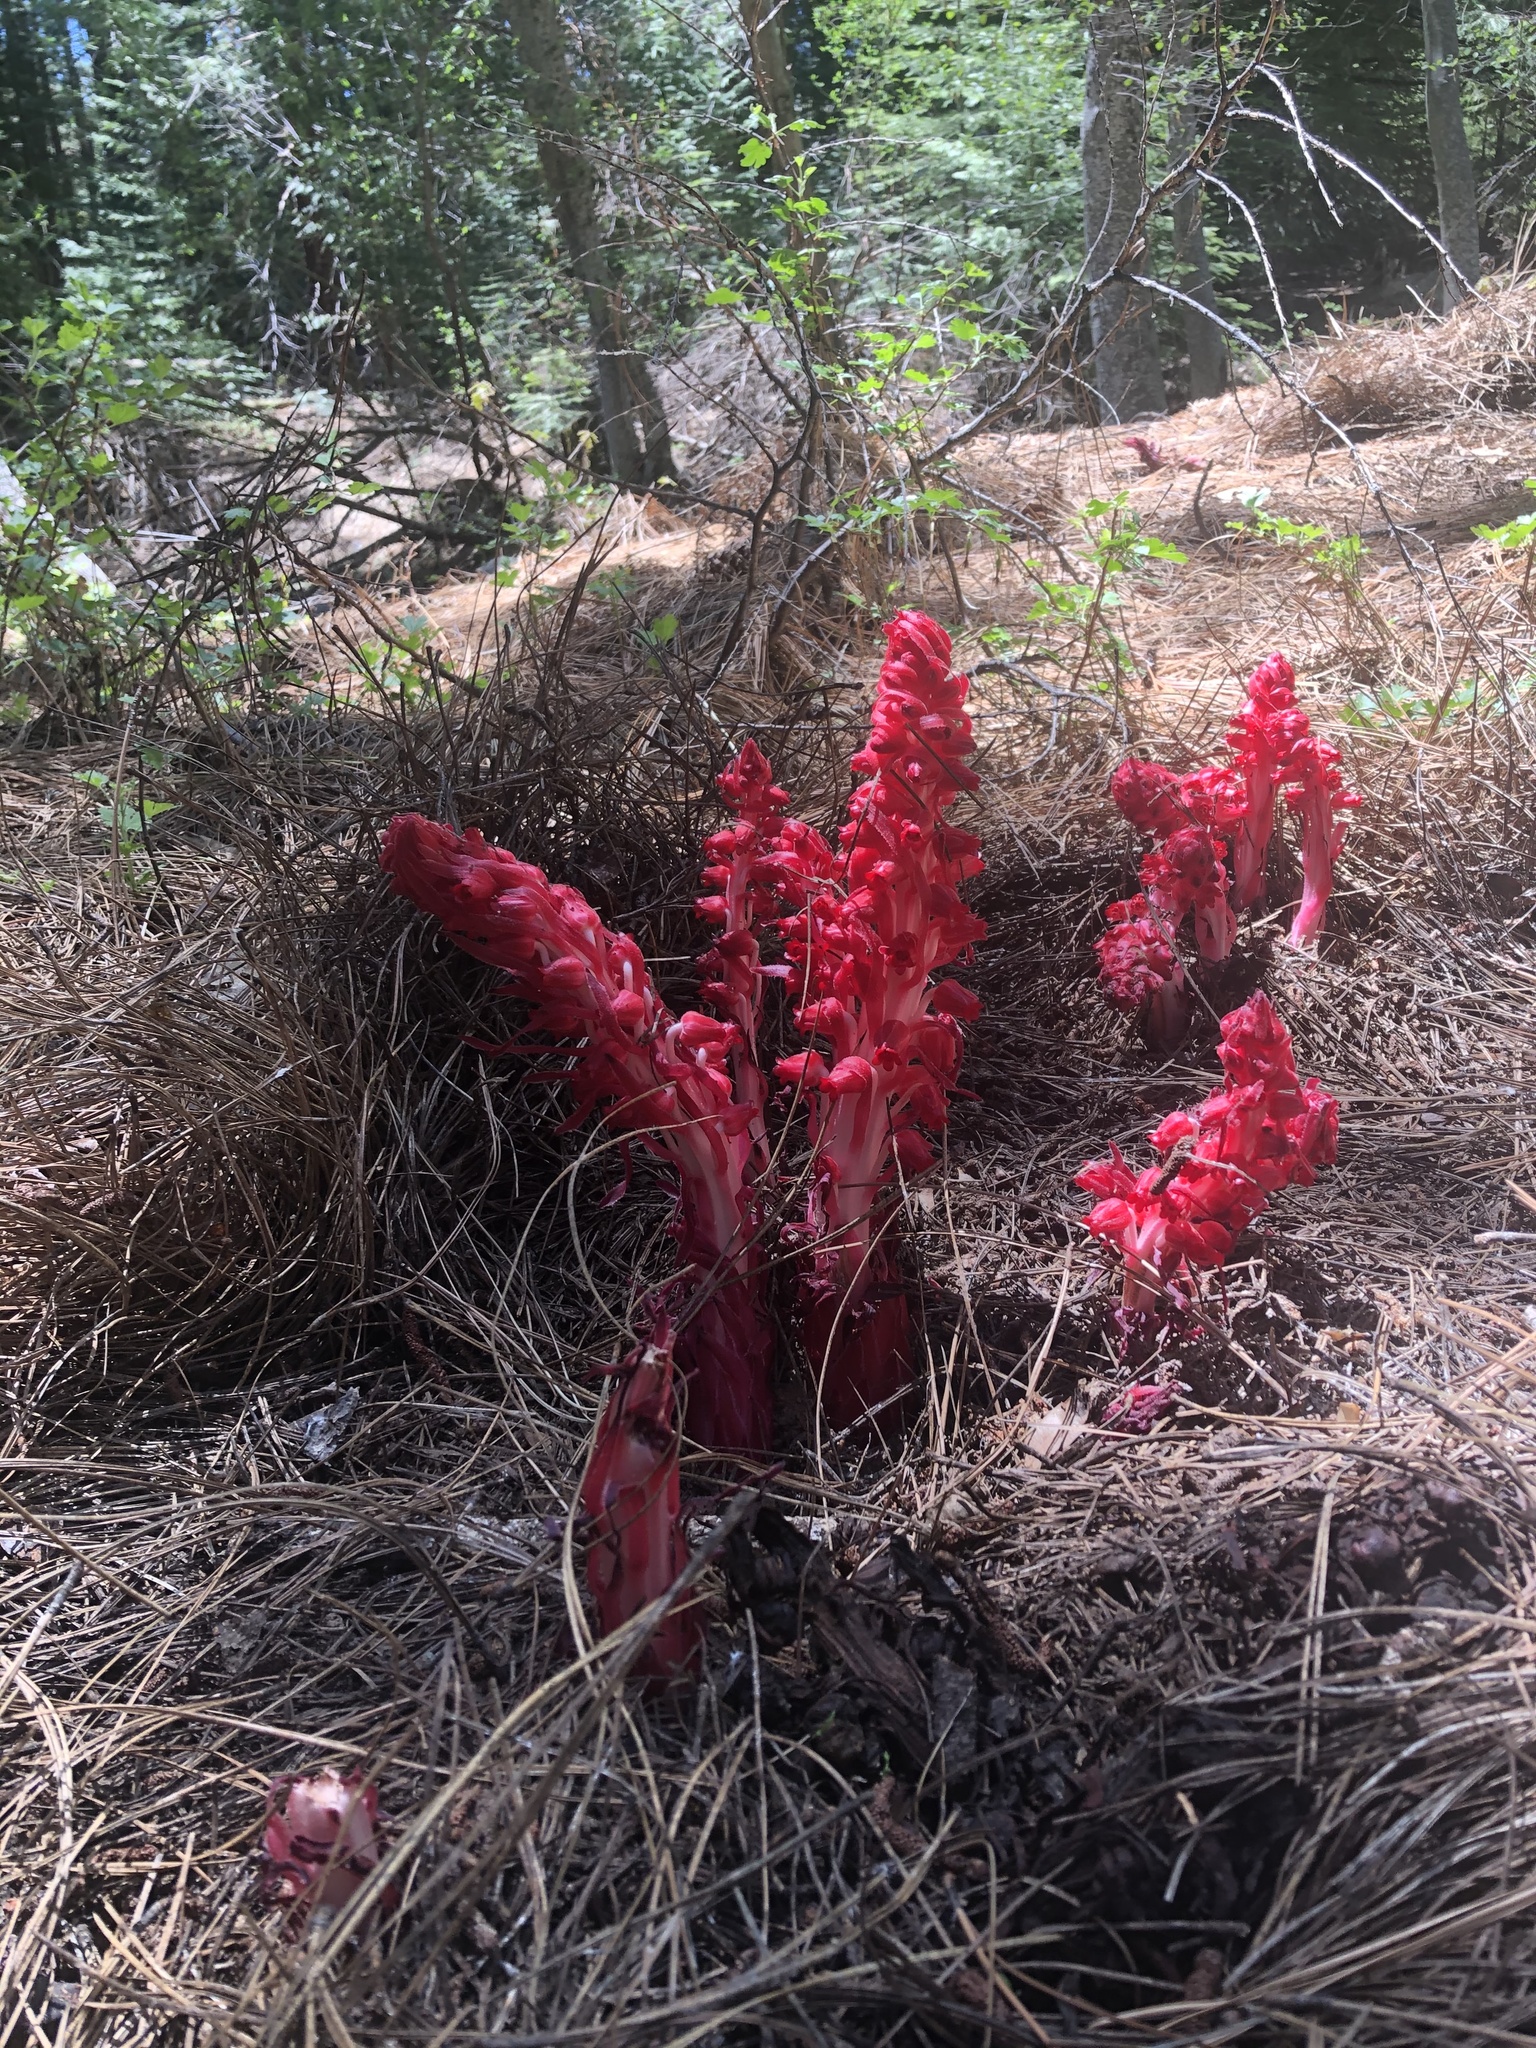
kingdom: Plantae
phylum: Tracheophyta
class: Magnoliopsida
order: Ericales
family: Ericaceae
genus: Sarcodes
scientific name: Sarcodes sanguinea
